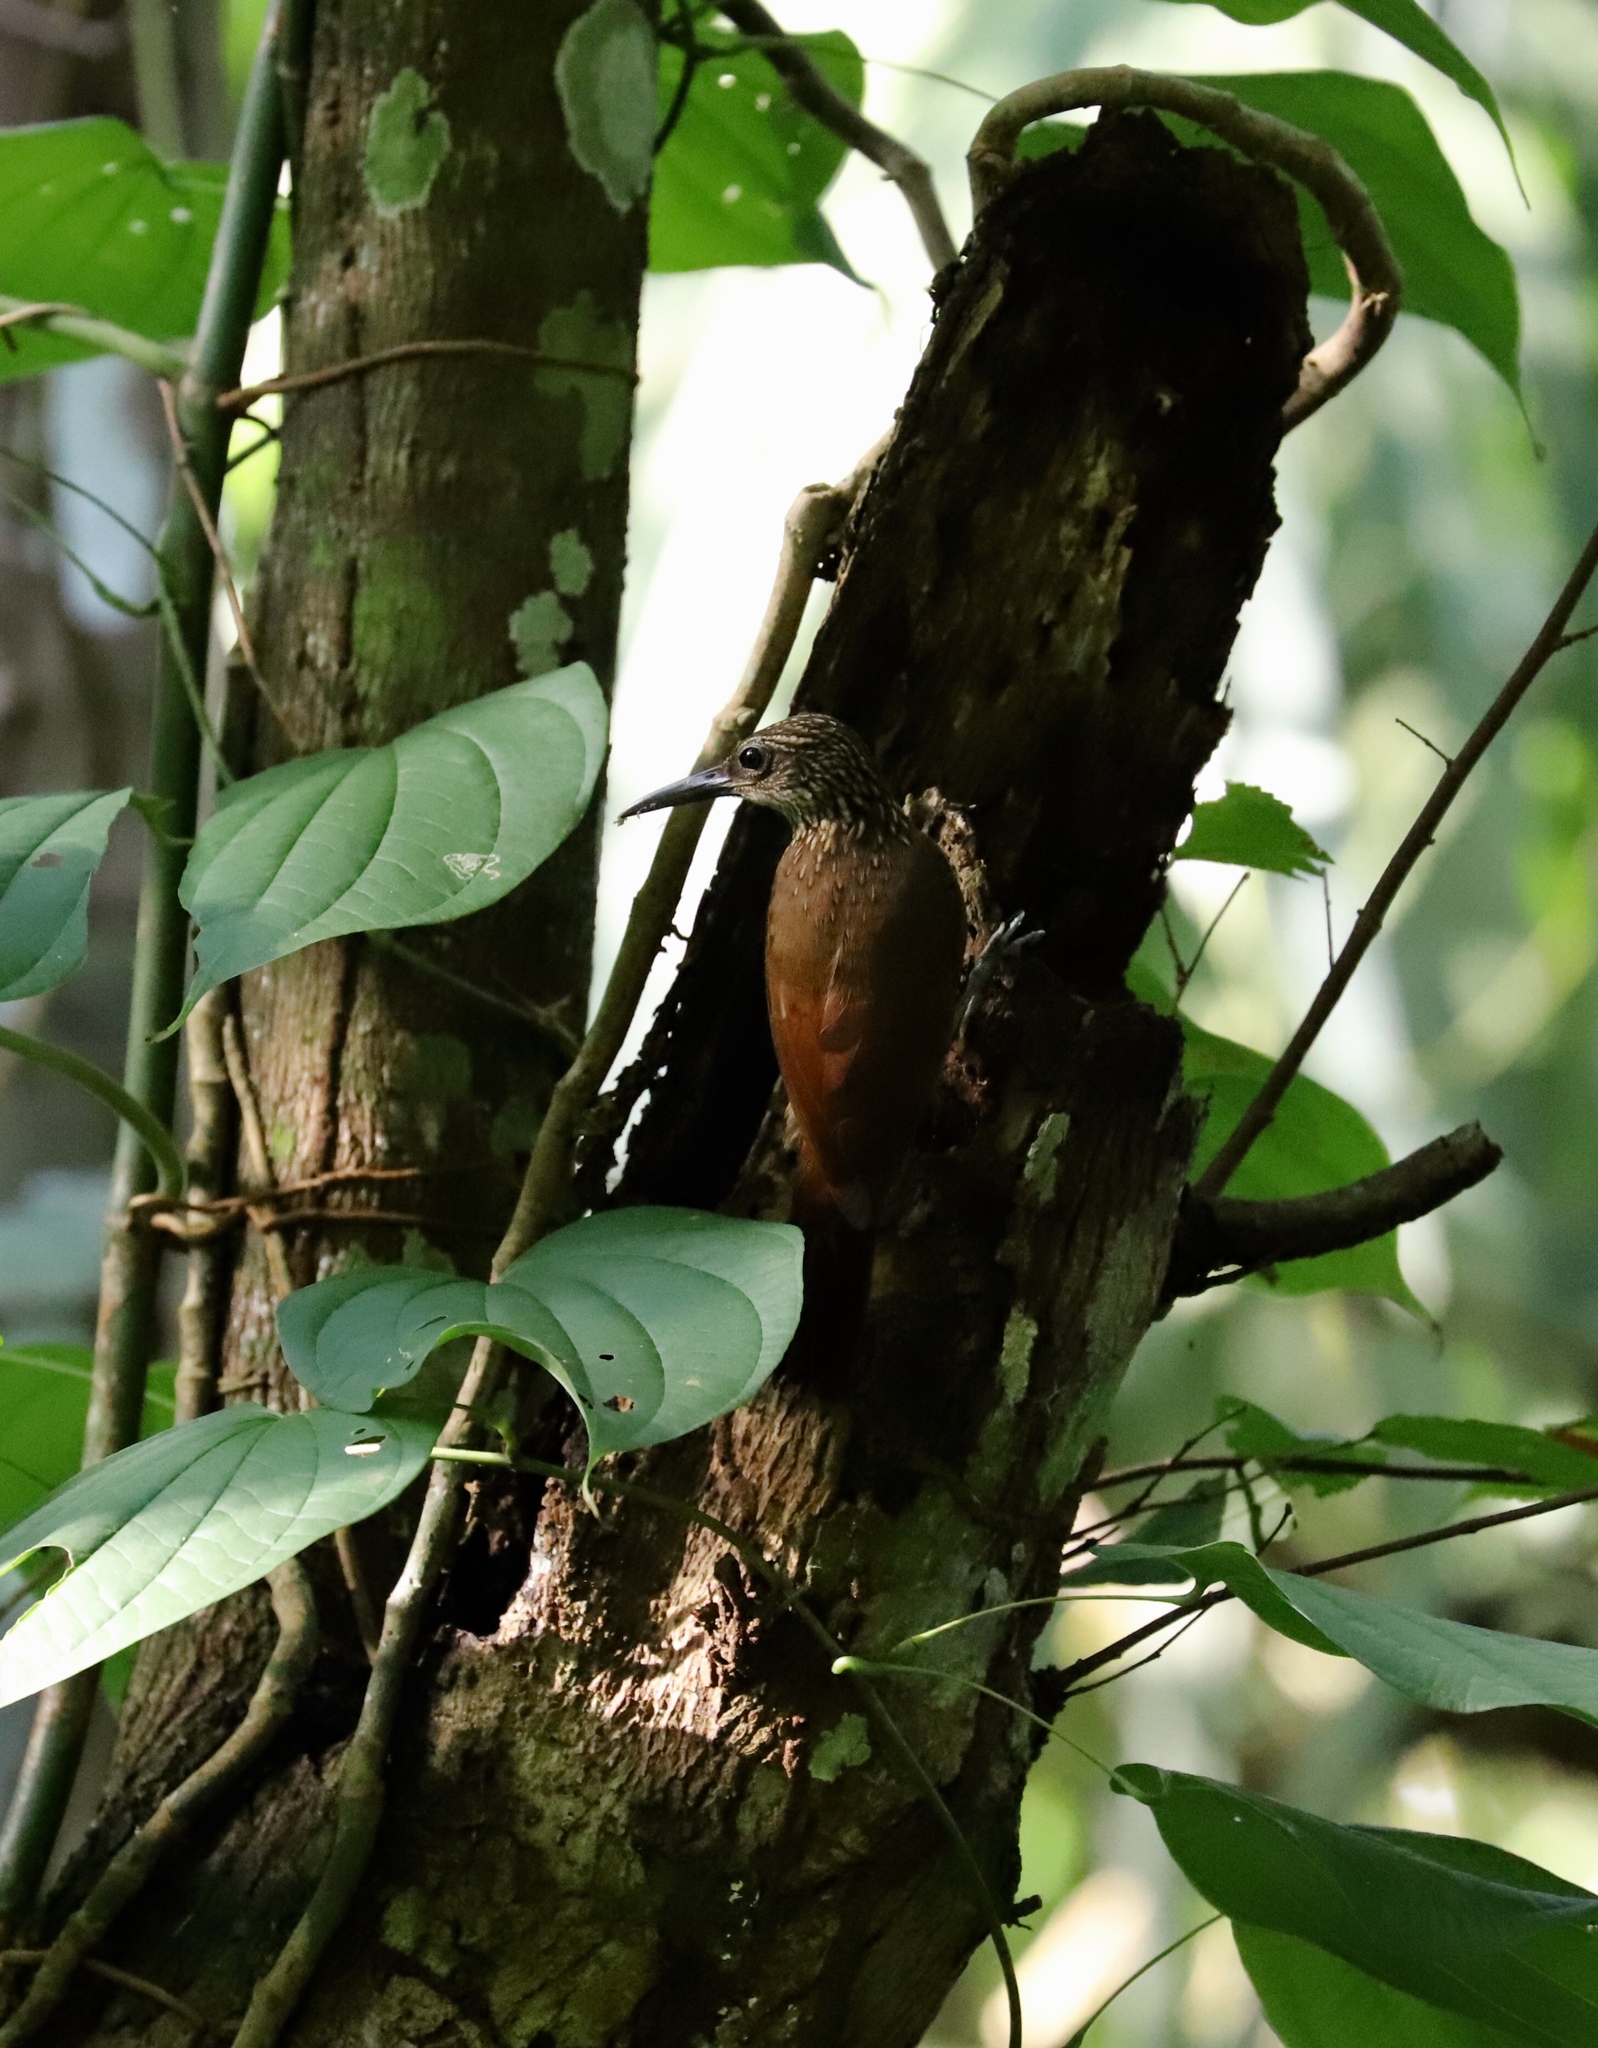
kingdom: Animalia
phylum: Chordata
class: Aves
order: Passeriformes
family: Furnariidae
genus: Xiphorhynchus
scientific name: Xiphorhynchus susurrans
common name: Cocoa woodcreeper
